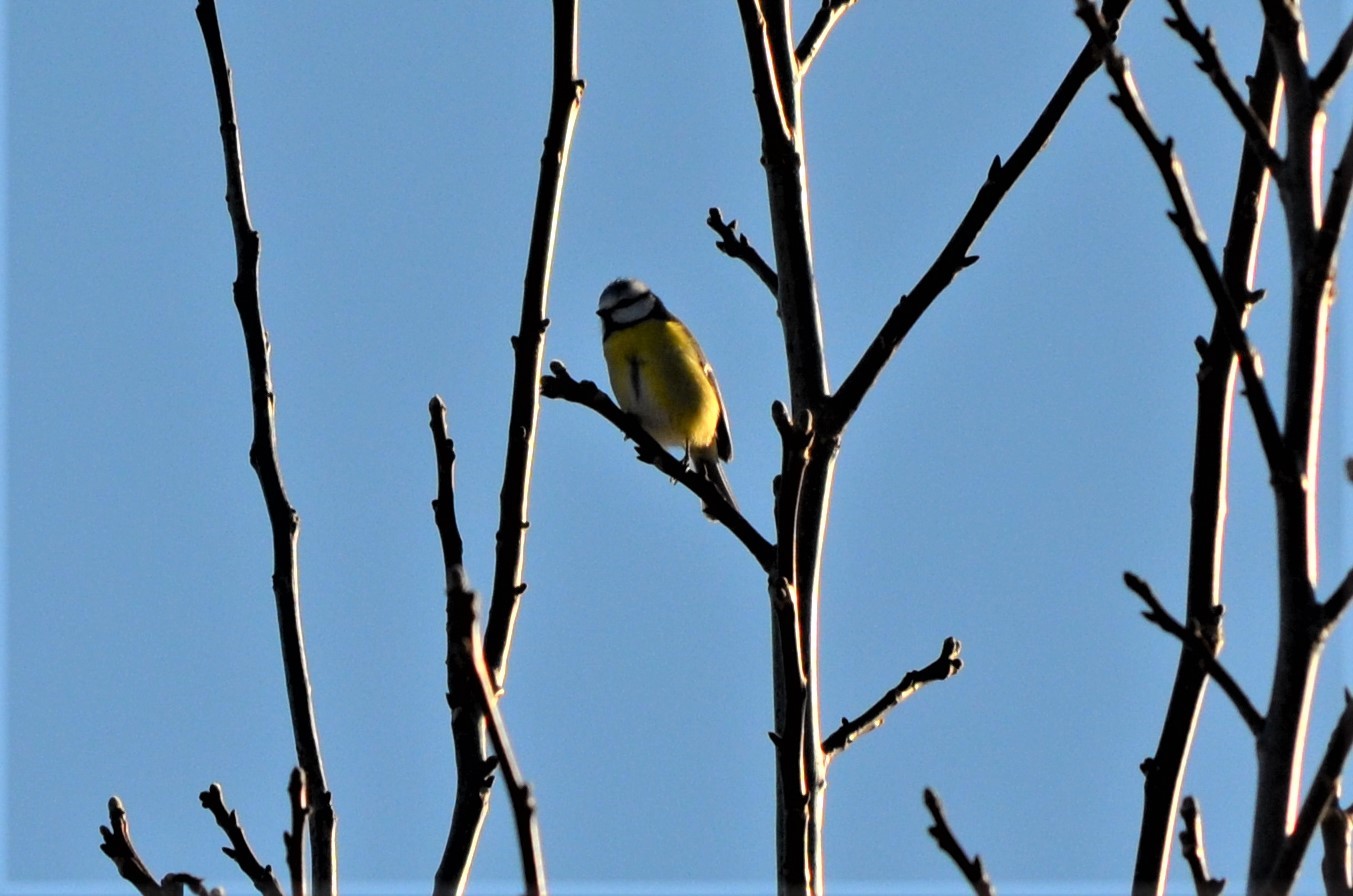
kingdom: Animalia
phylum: Chordata
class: Aves
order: Passeriformes
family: Paridae
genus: Cyanistes
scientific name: Cyanistes caeruleus
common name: Eurasian blue tit
